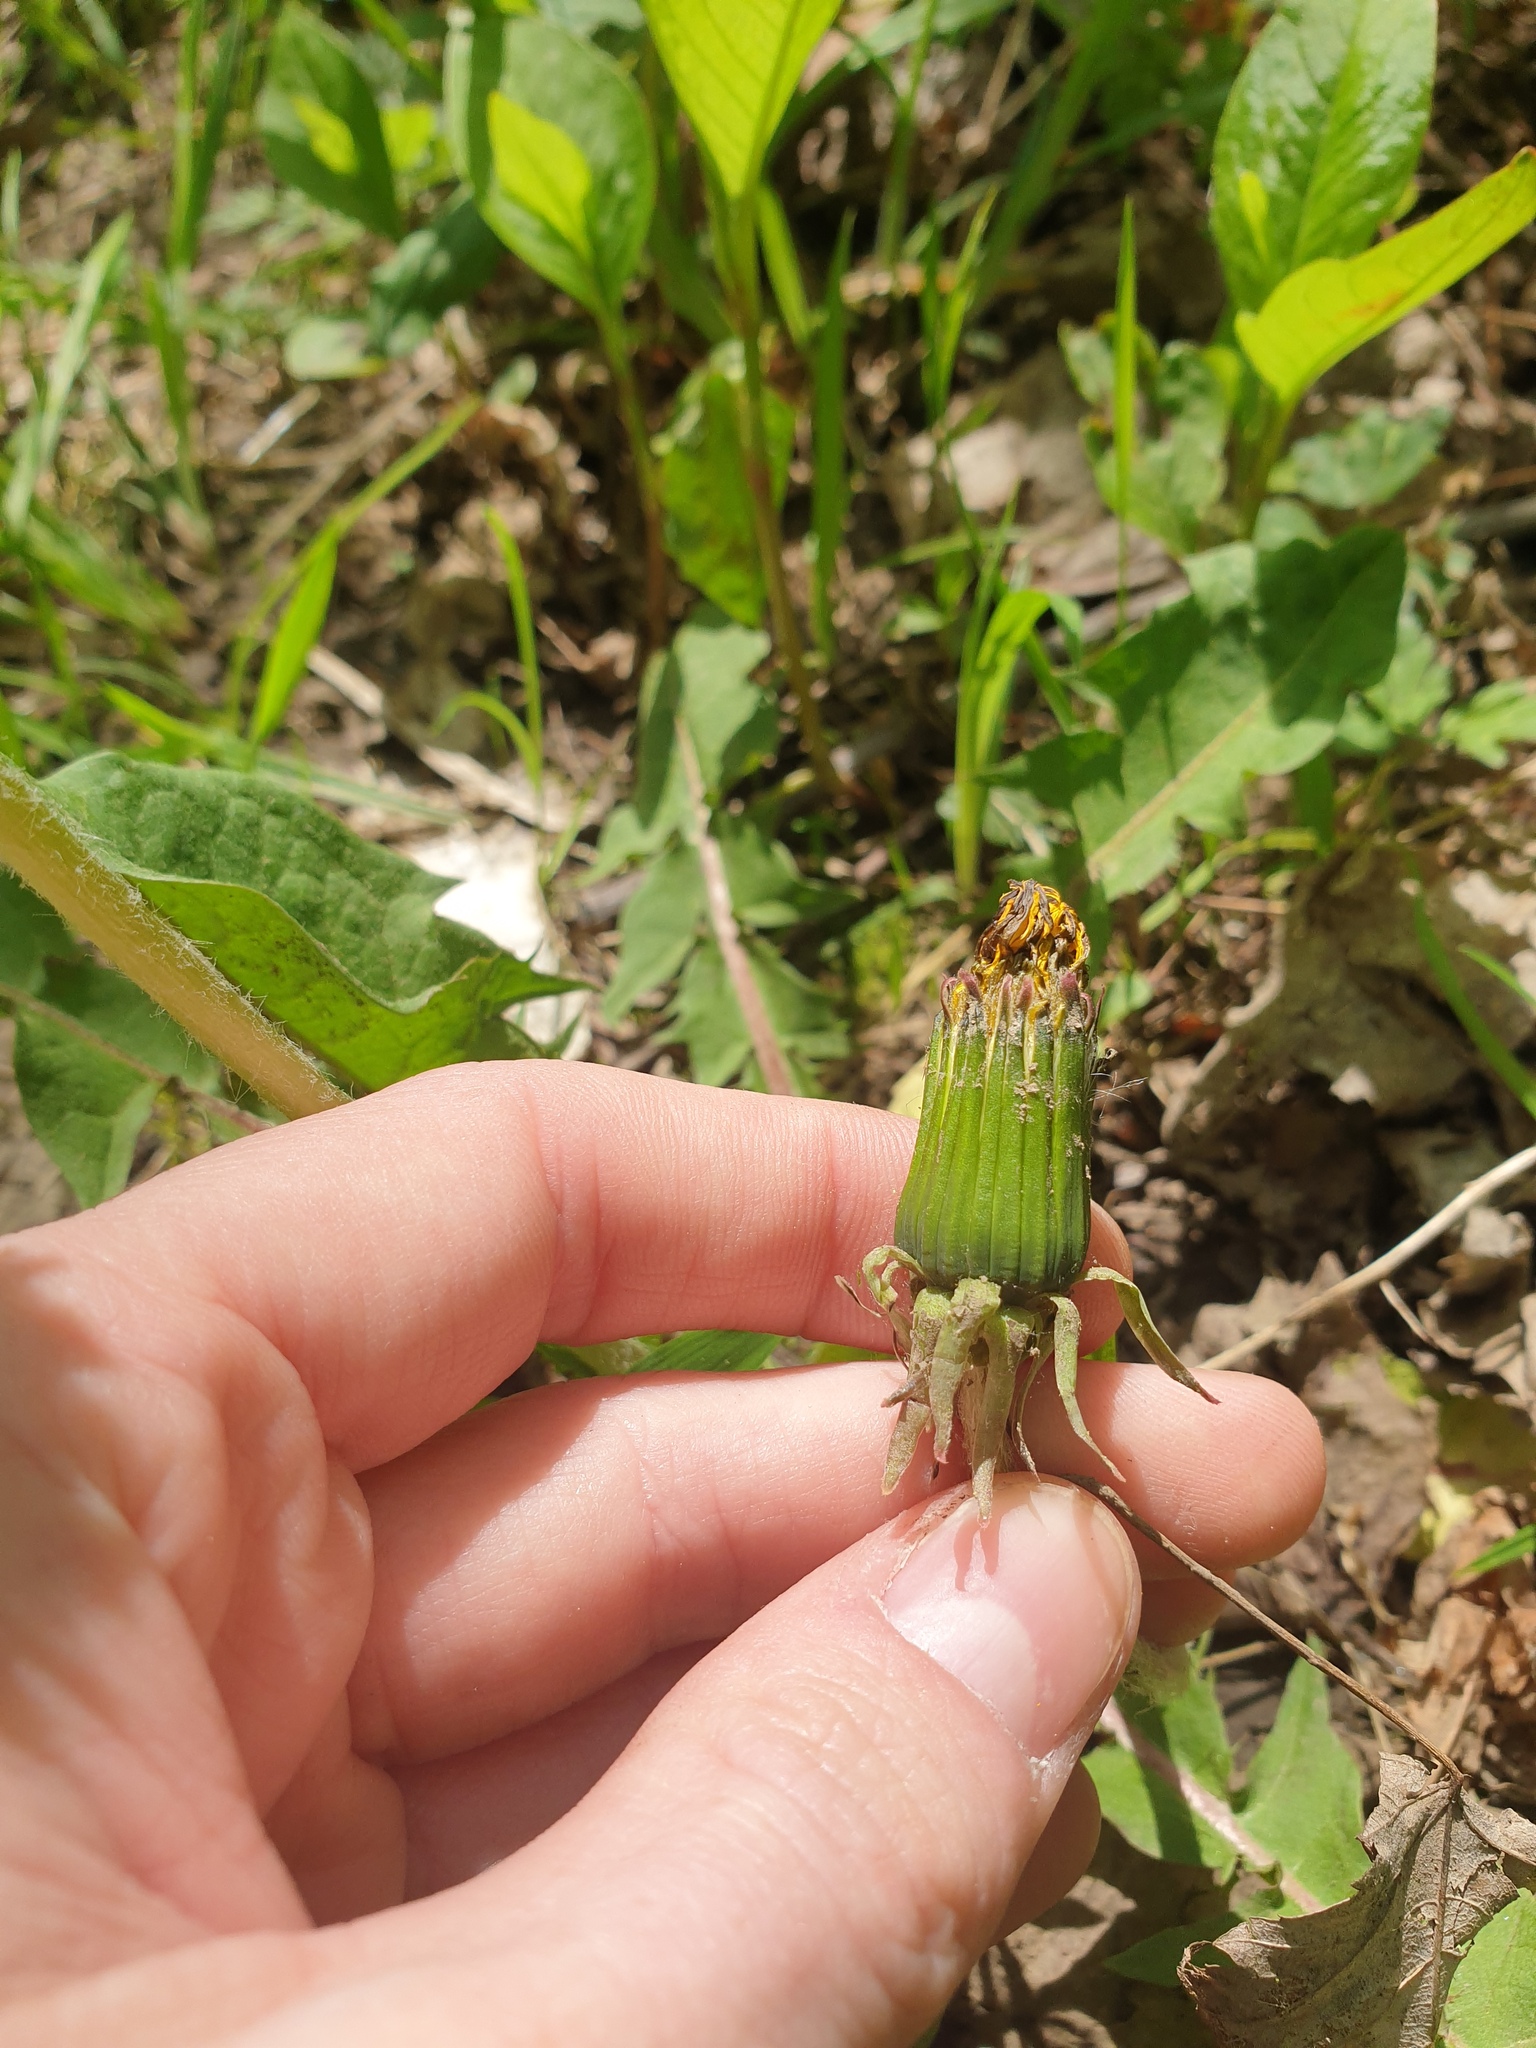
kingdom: Plantae
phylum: Tracheophyta
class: Magnoliopsida
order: Asterales
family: Asteraceae
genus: Taraxacum
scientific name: Taraxacum officinale
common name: Common dandelion
